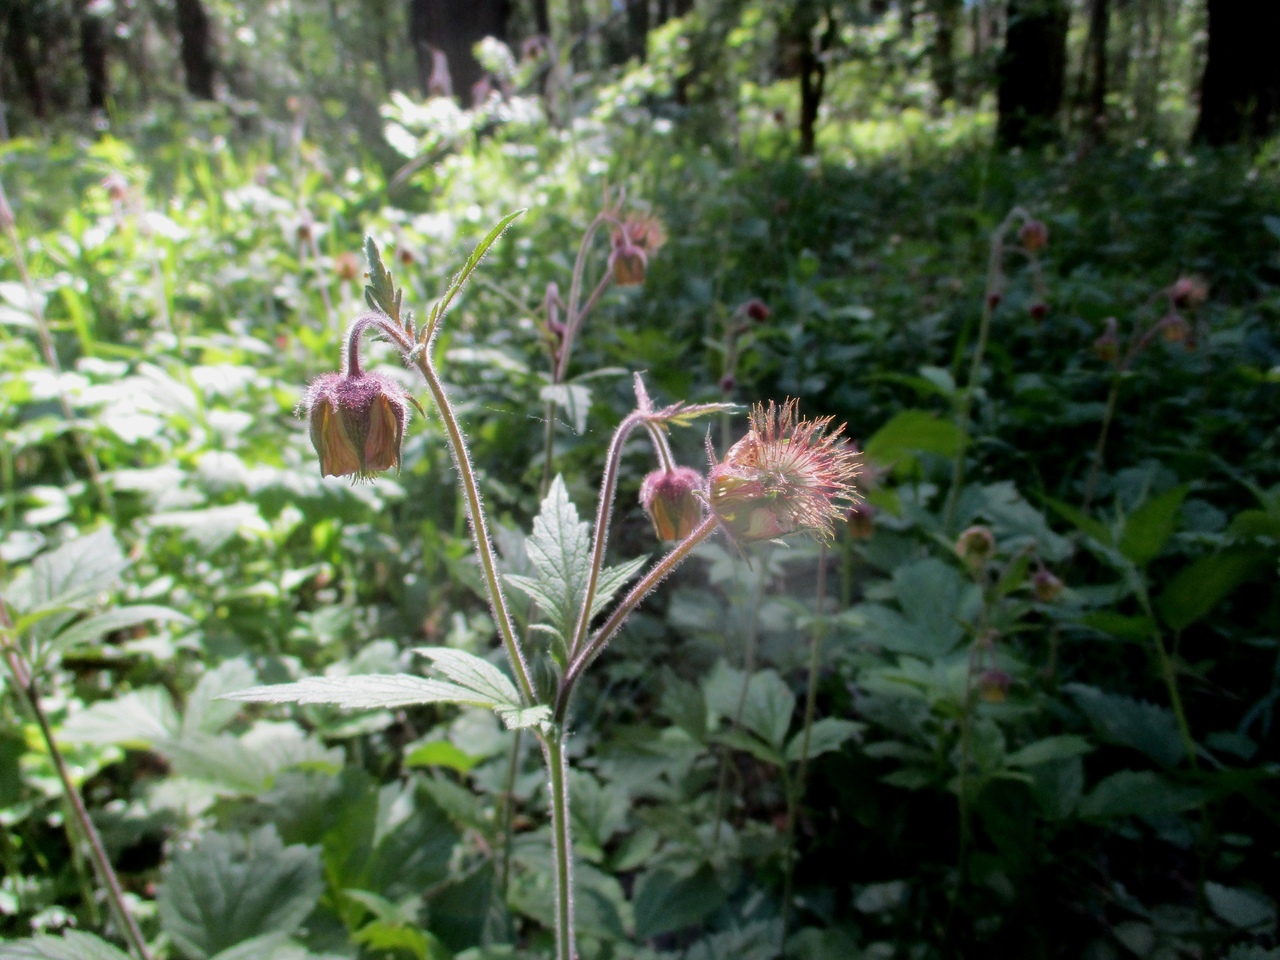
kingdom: Plantae
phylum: Tracheophyta
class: Magnoliopsida
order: Rosales
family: Rosaceae
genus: Geum
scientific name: Geum rivale
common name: Water avens
